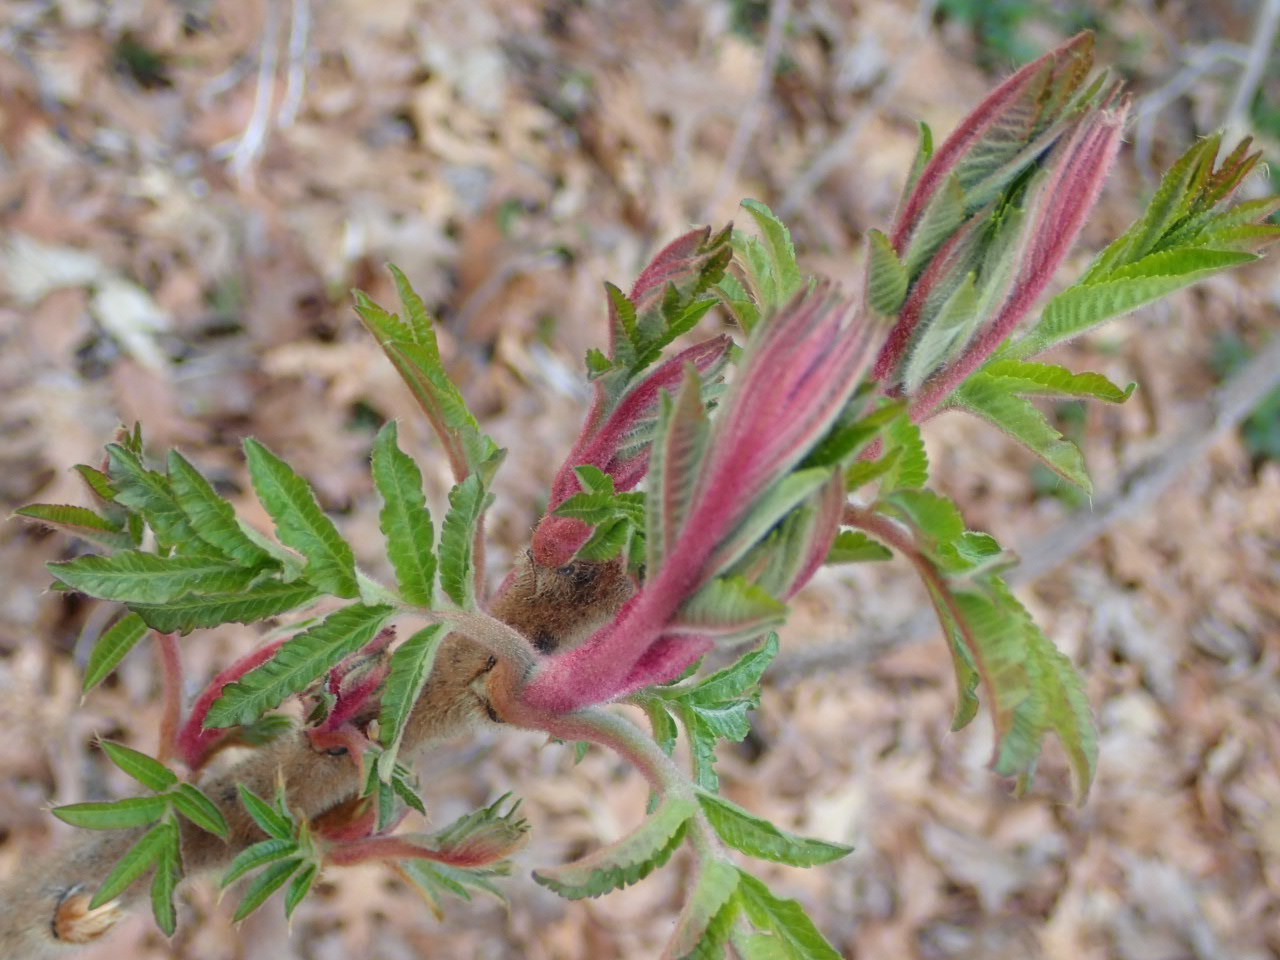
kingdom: Plantae
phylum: Tracheophyta
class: Magnoliopsida
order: Sapindales
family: Anacardiaceae
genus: Rhus
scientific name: Rhus typhina
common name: Staghorn sumac
